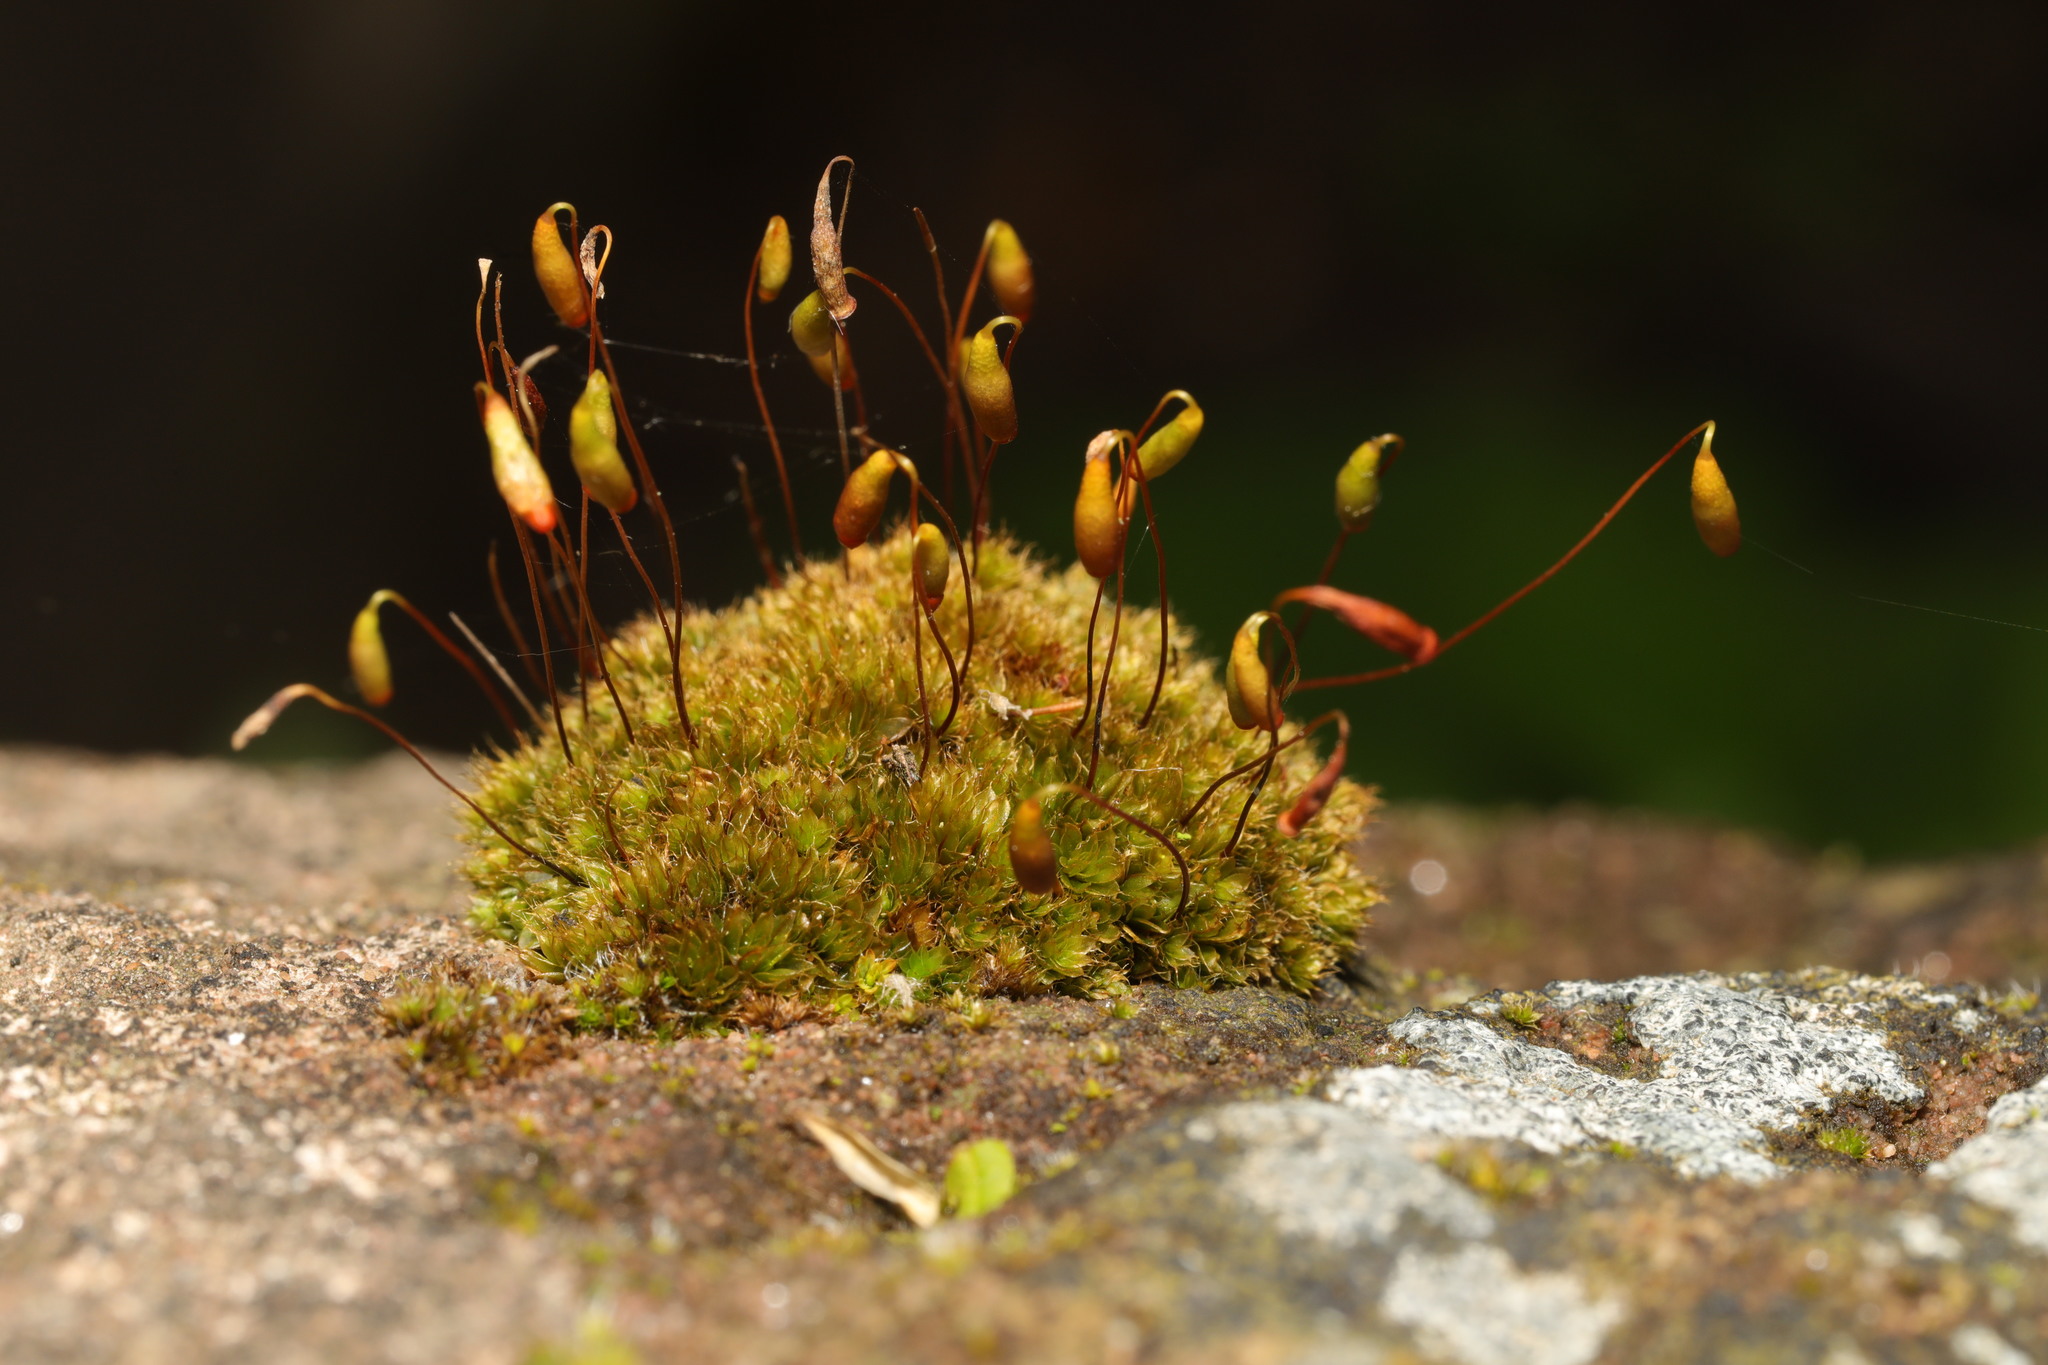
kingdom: Plantae
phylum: Bryophyta
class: Bryopsida
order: Bryales
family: Bryaceae
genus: Rosulabryum
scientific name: Rosulabryum capillare
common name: Capillary thread-moss
